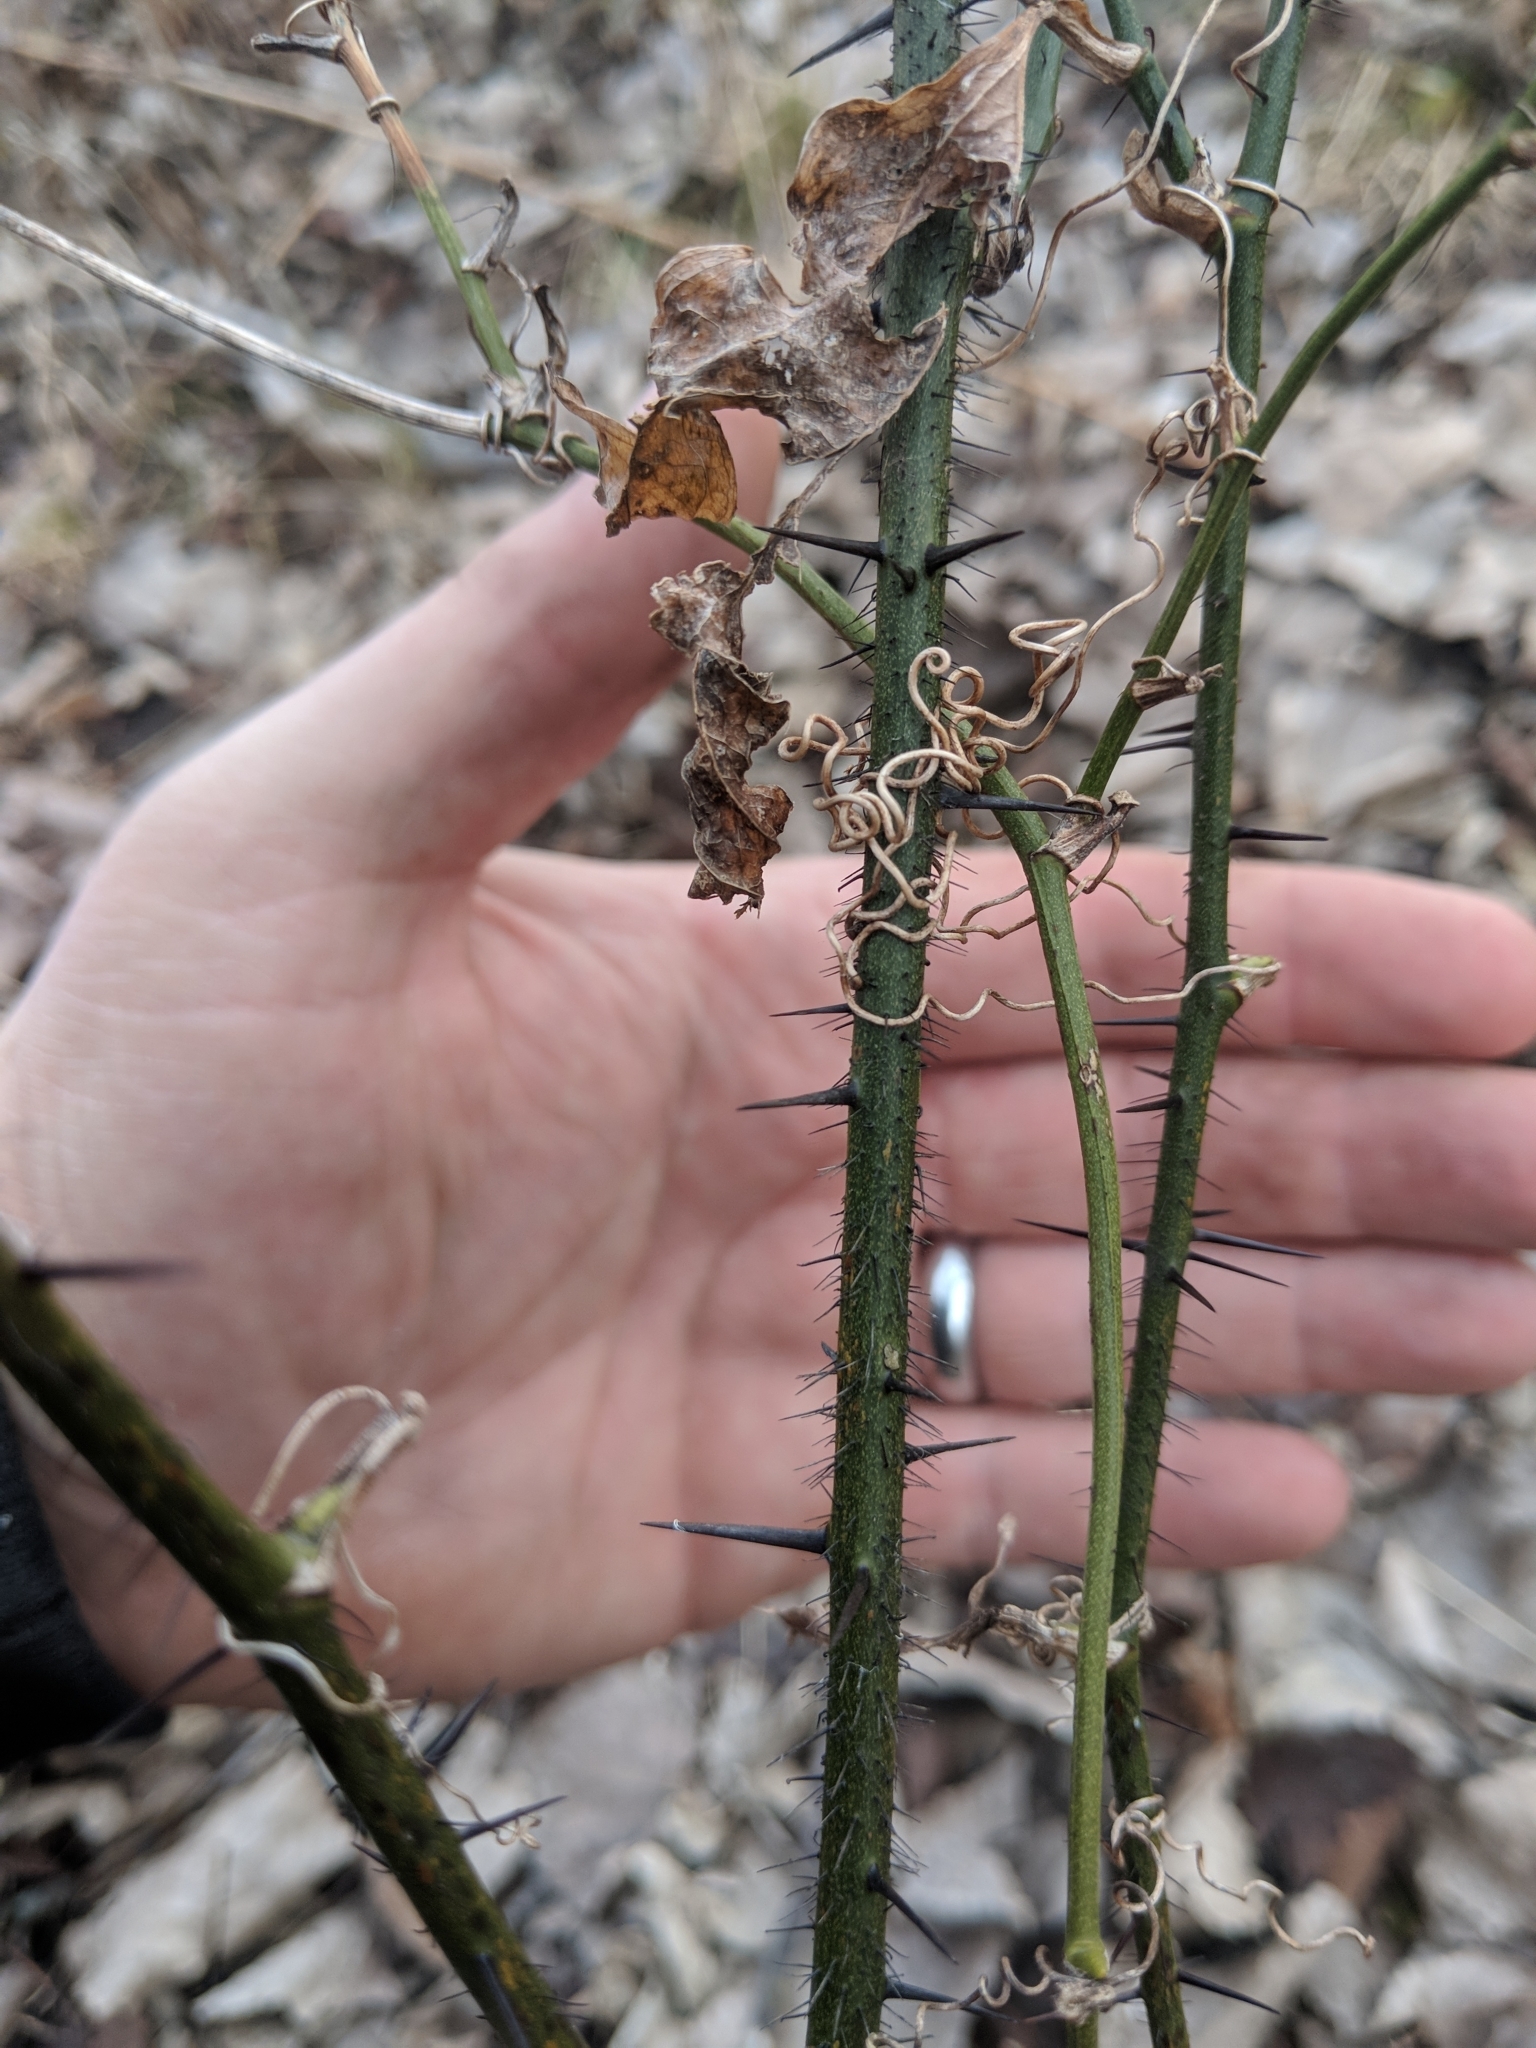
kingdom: Plantae
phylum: Tracheophyta
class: Liliopsida
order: Liliales
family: Smilacaceae
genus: Smilax
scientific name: Smilax tamnoides
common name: Hellfetter
